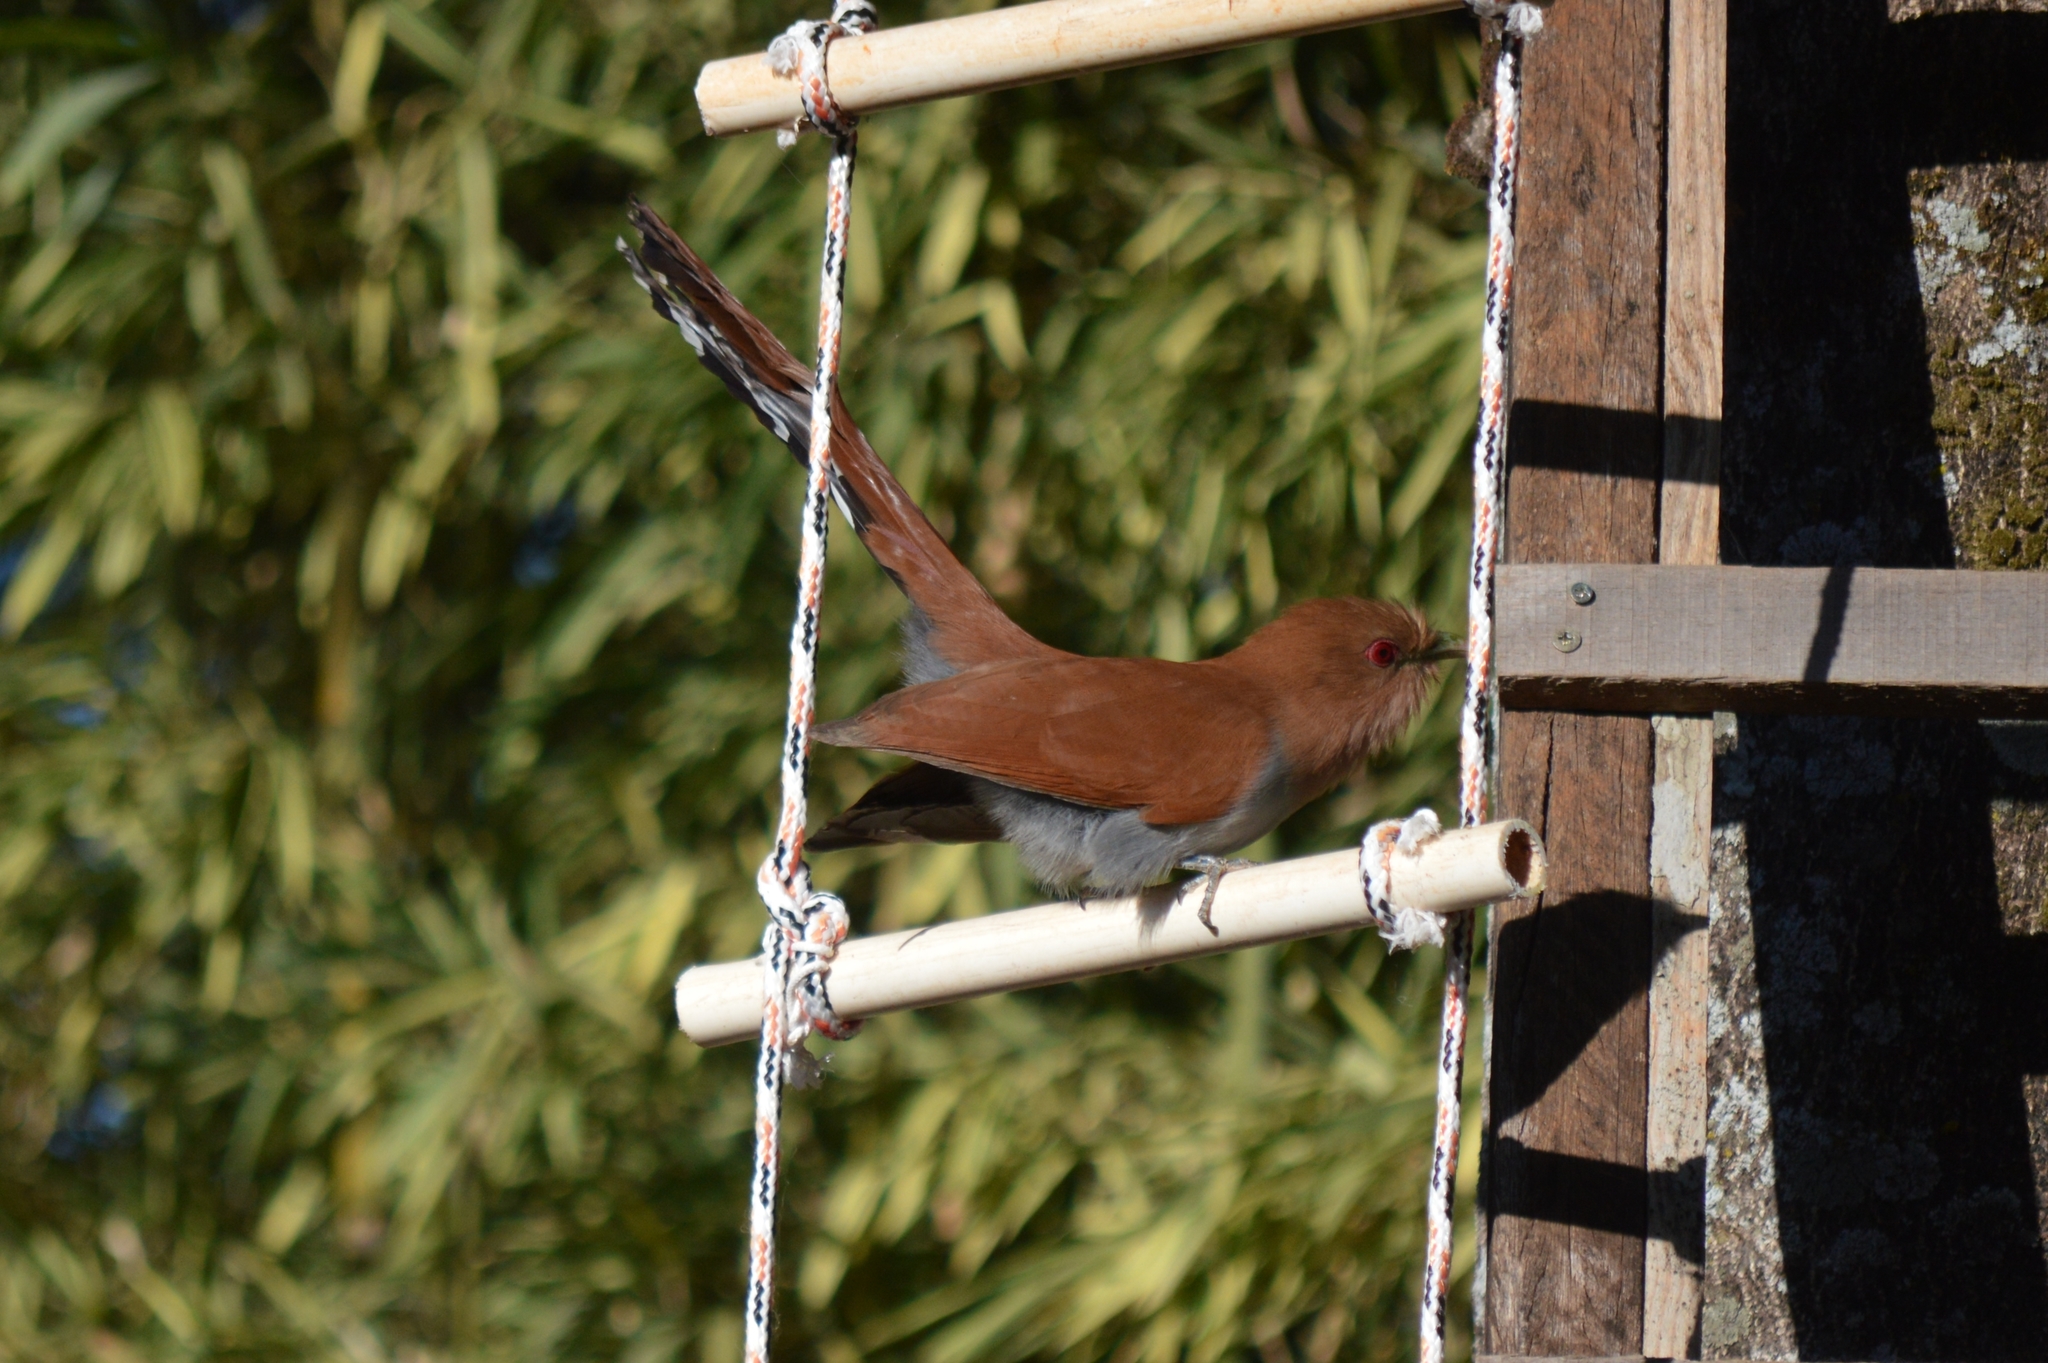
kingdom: Animalia
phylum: Chordata
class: Aves
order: Cuculiformes
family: Cuculidae
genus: Piaya
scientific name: Piaya cayana
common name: Squirrel cuckoo
